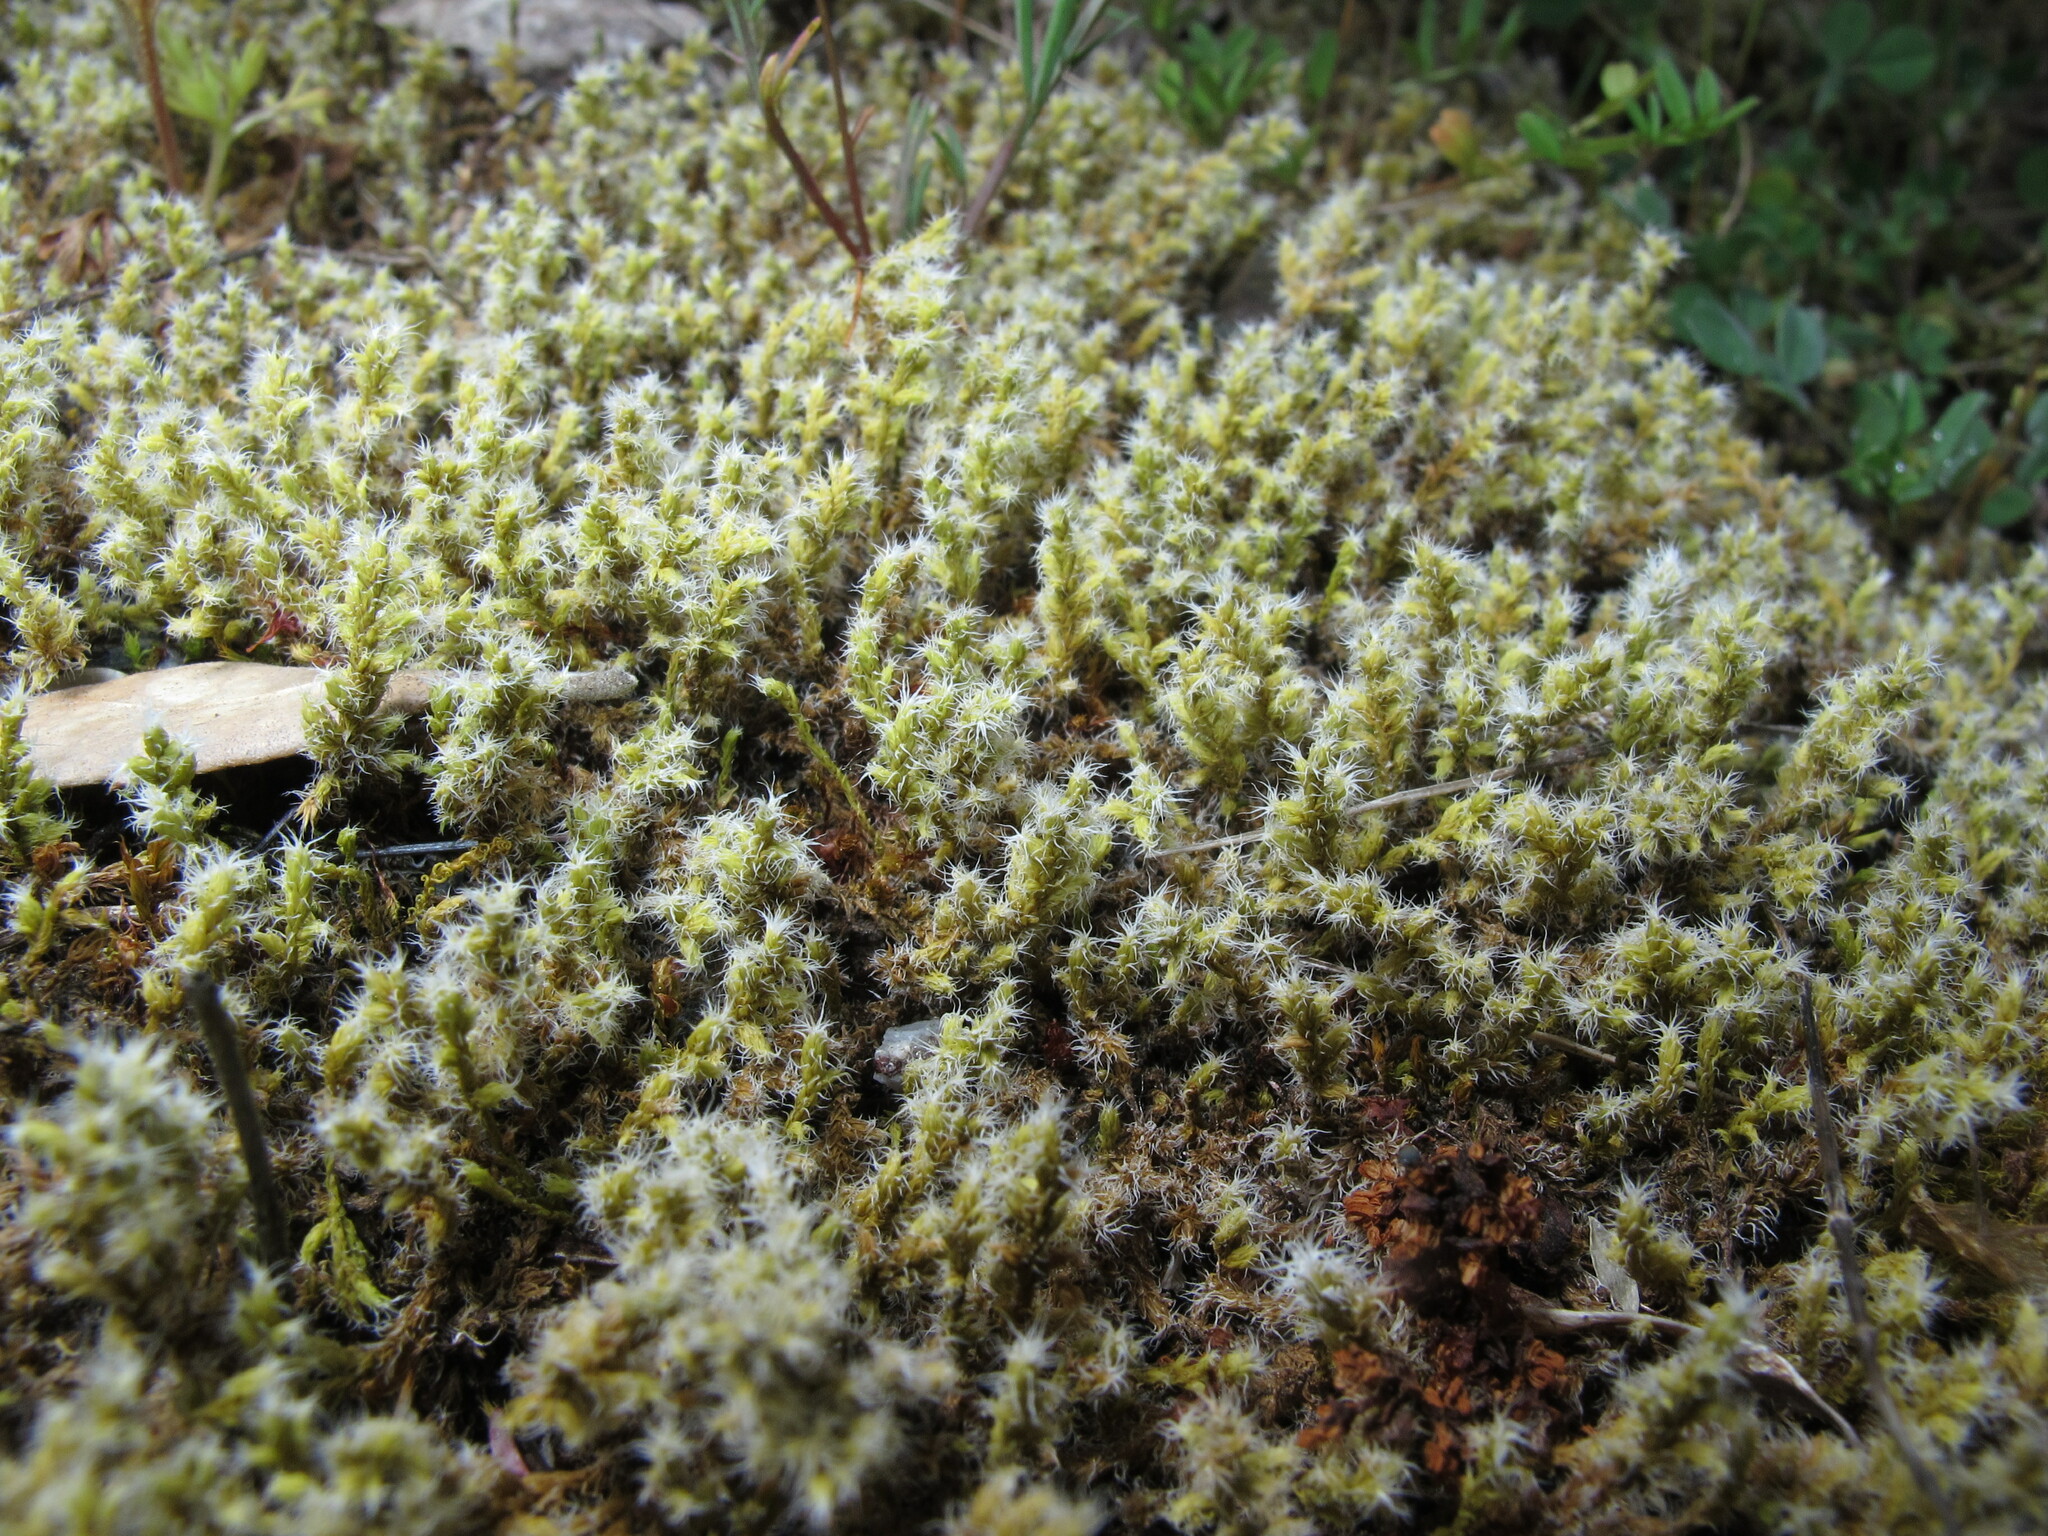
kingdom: Plantae
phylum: Bryophyta
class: Bryopsida
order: Grimmiales
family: Grimmiaceae
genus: Niphotrichum
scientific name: Niphotrichum elongatum
